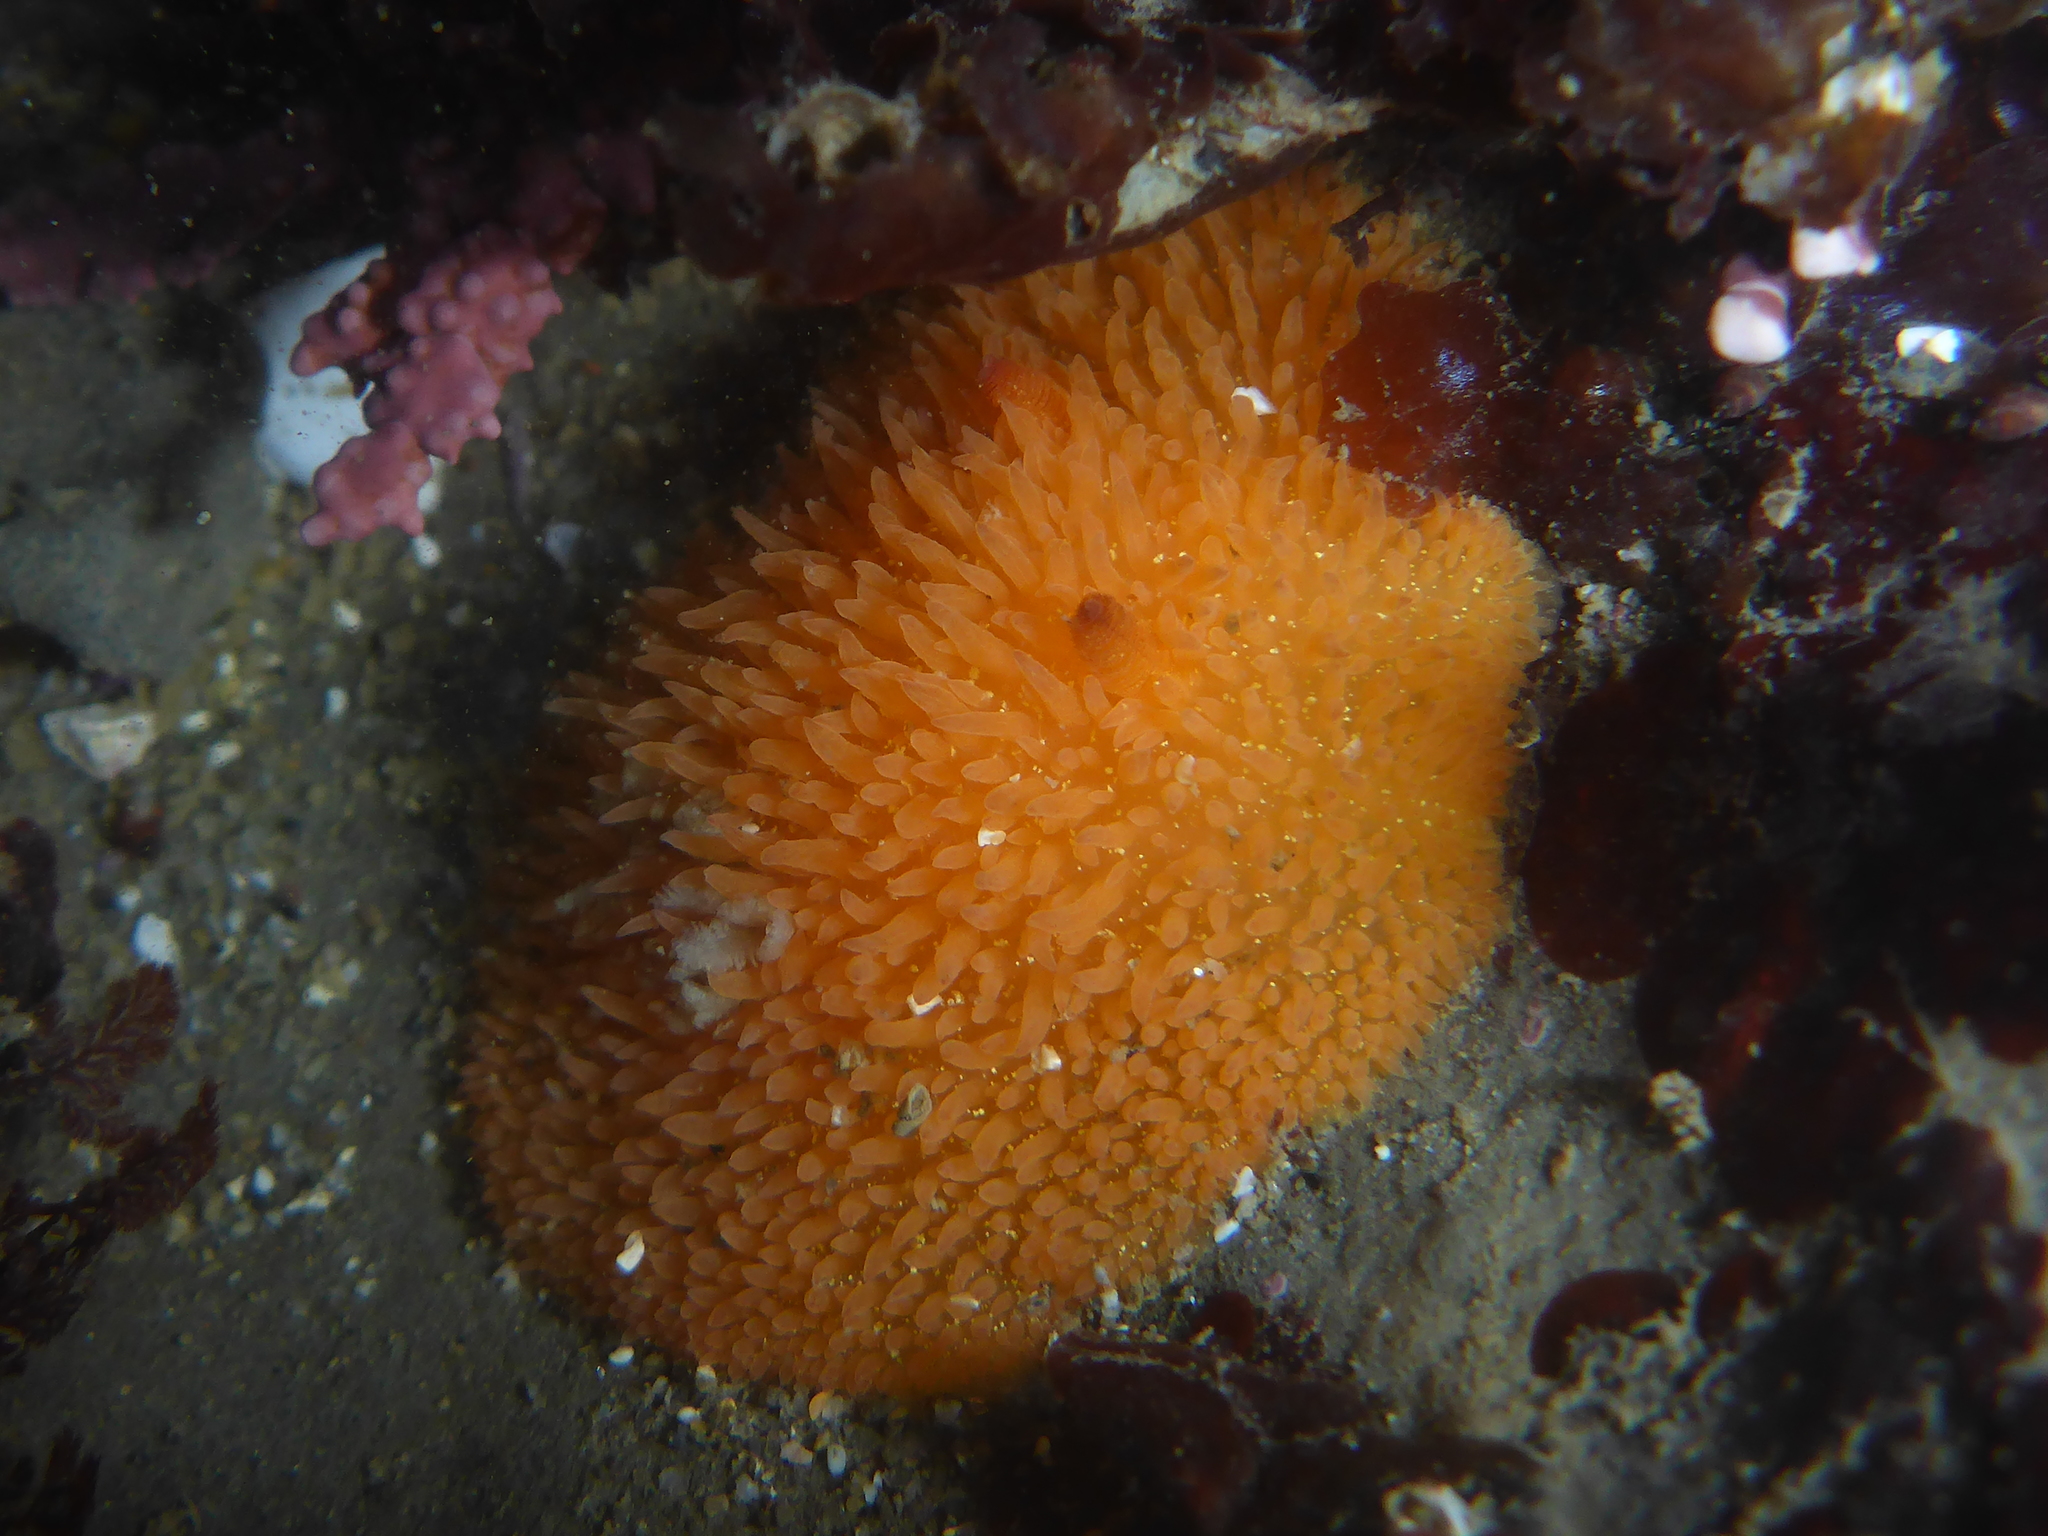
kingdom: Animalia
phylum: Mollusca
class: Gastropoda
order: Nudibranchia
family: Onchidorididae
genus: Acanthodoris
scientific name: Acanthodoris lutea
